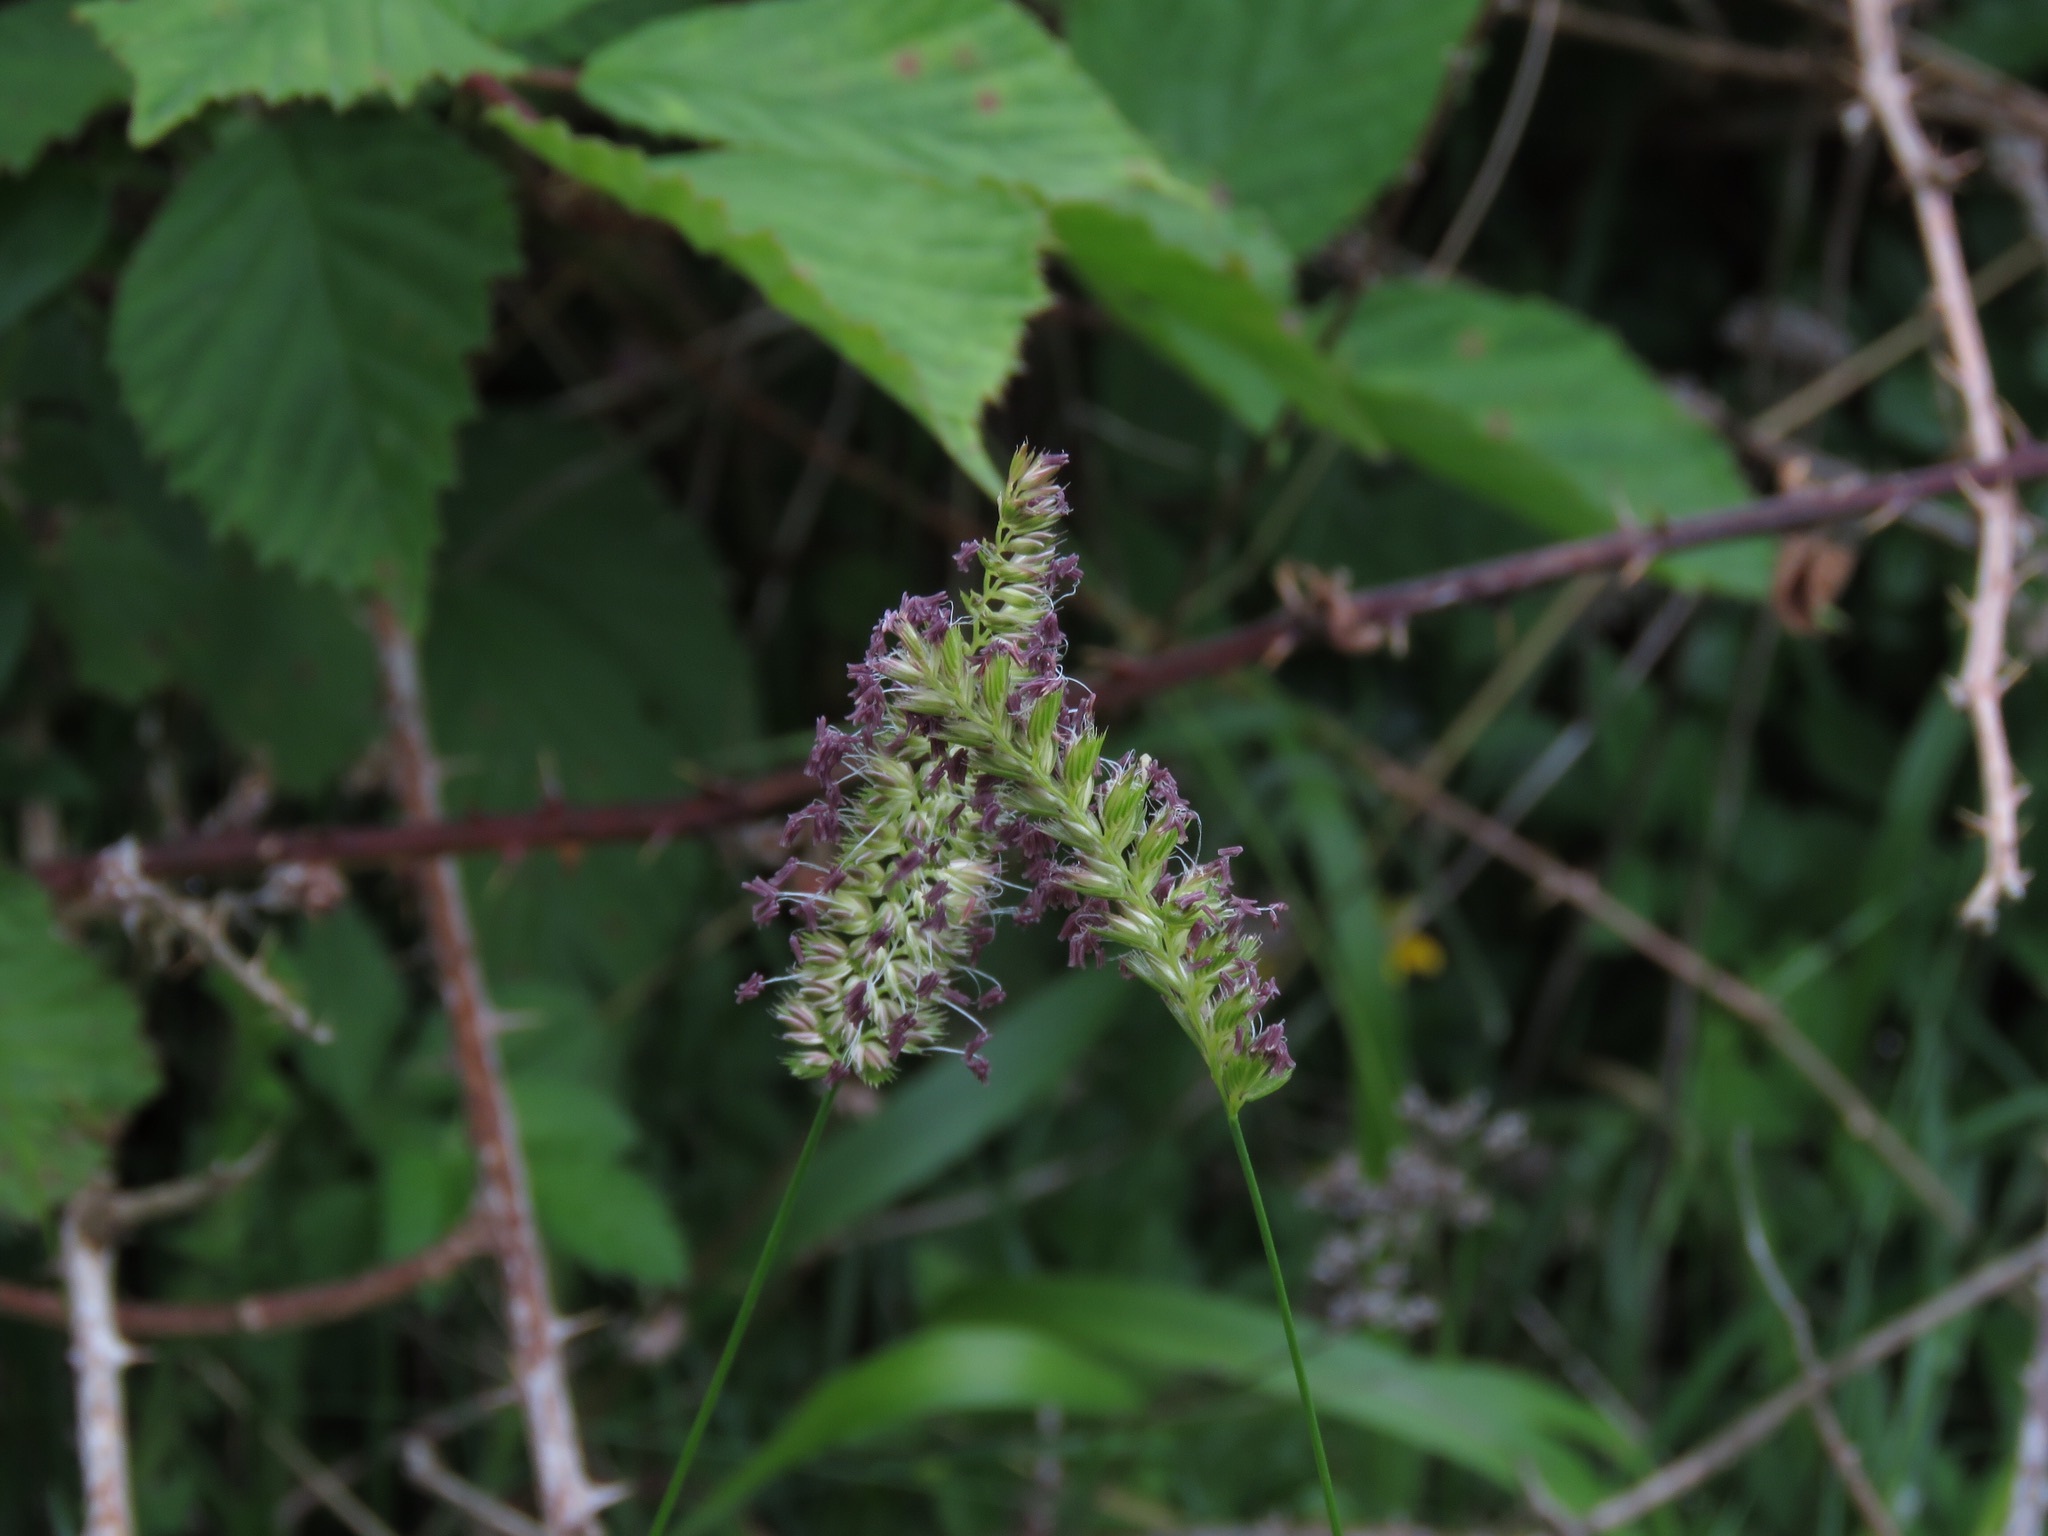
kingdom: Plantae
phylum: Tracheophyta
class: Liliopsida
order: Poales
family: Poaceae
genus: Cynosurus
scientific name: Cynosurus cristatus
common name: Crested dog's-tail
